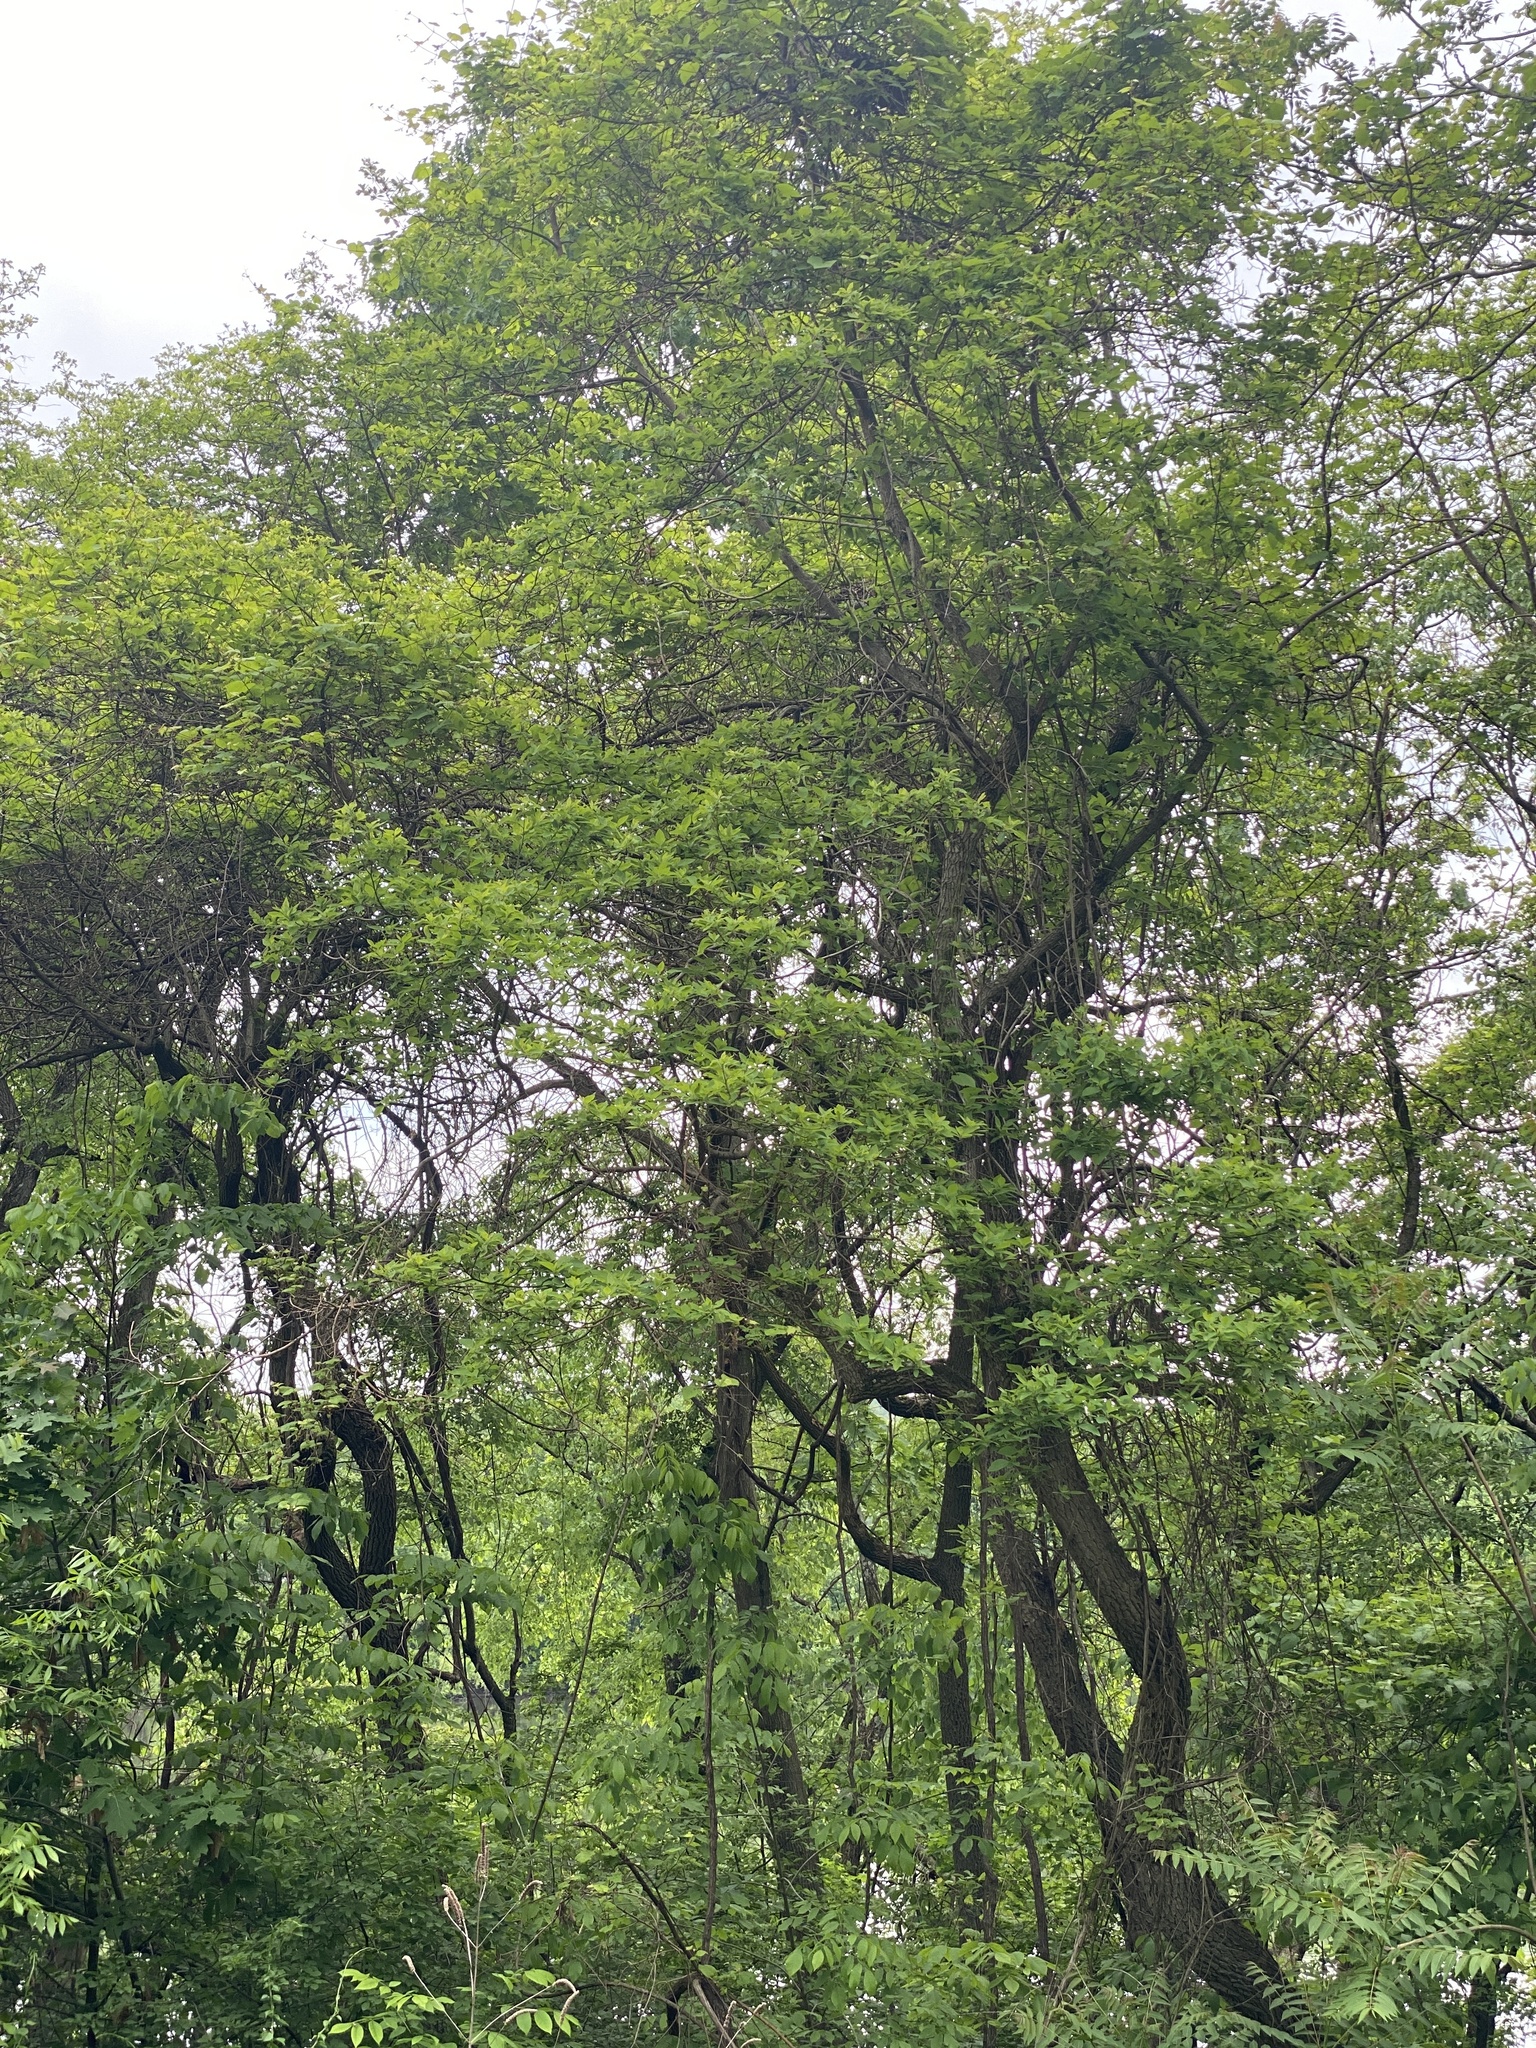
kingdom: Plantae
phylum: Tracheophyta
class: Magnoliopsida
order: Laurales
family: Lauraceae
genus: Sassafras
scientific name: Sassafras albidum
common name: Sassafras
